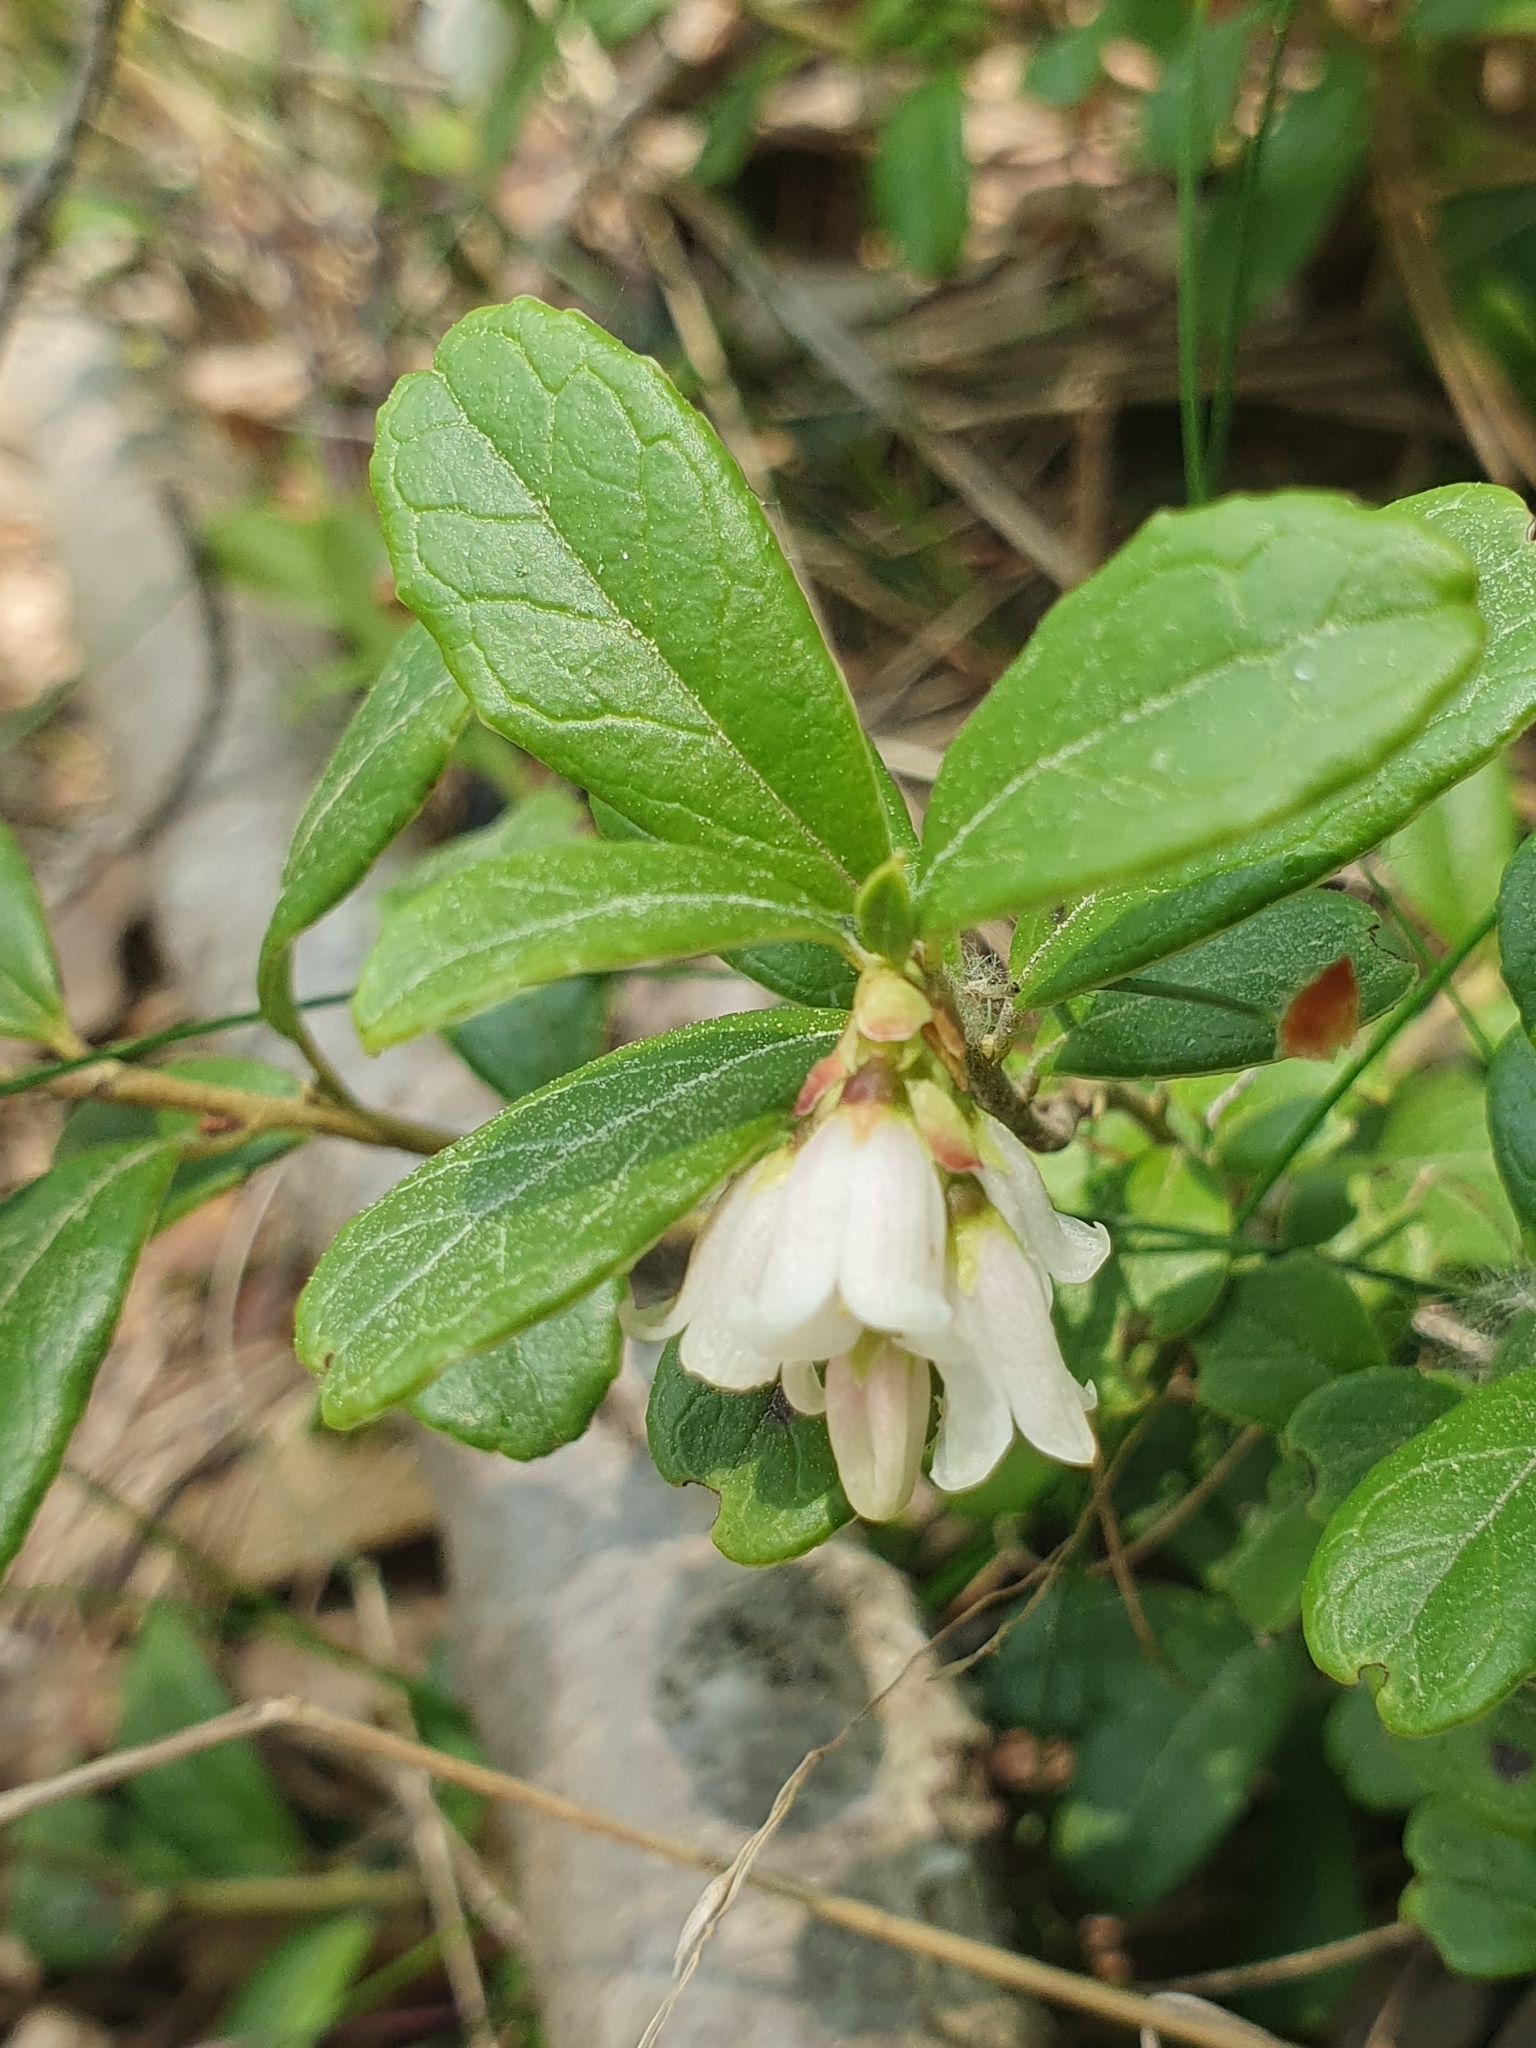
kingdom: Plantae
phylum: Tracheophyta
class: Magnoliopsida
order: Ericales
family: Ericaceae
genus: Vaccinium
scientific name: Vaccinium vitis-idaea
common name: Cowberry
